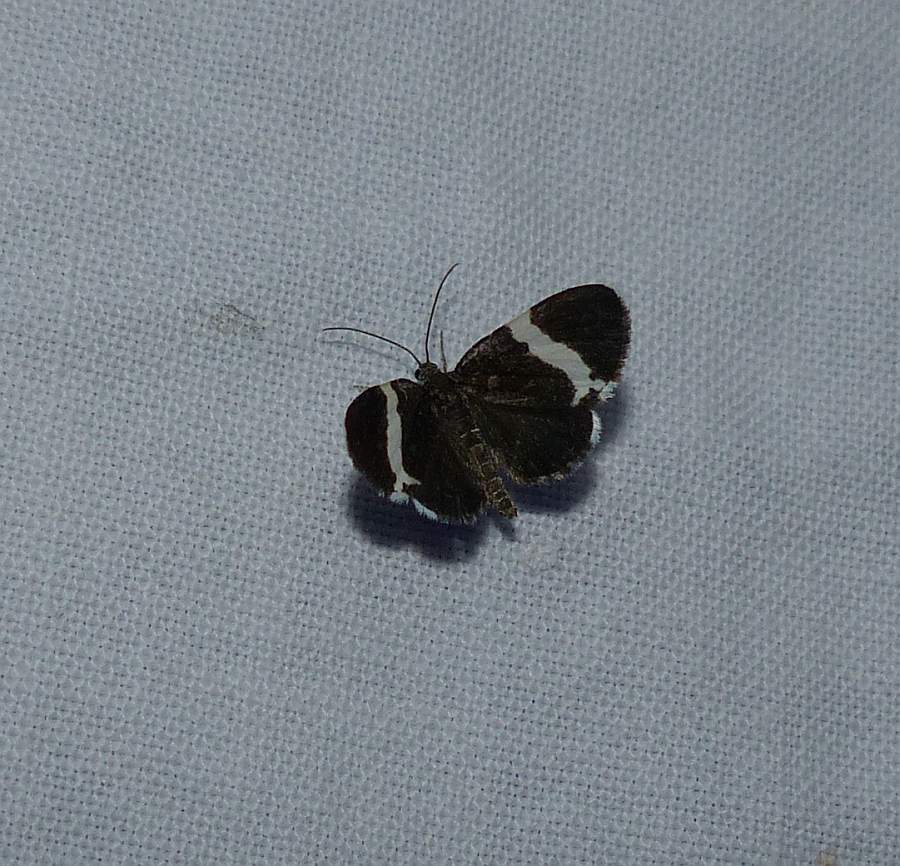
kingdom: Animalia
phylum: Arthropoda
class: Insecta
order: Lepidoptera
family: Geometridae
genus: Trichodezia
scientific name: Trichodezia albovittata
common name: White striped black
